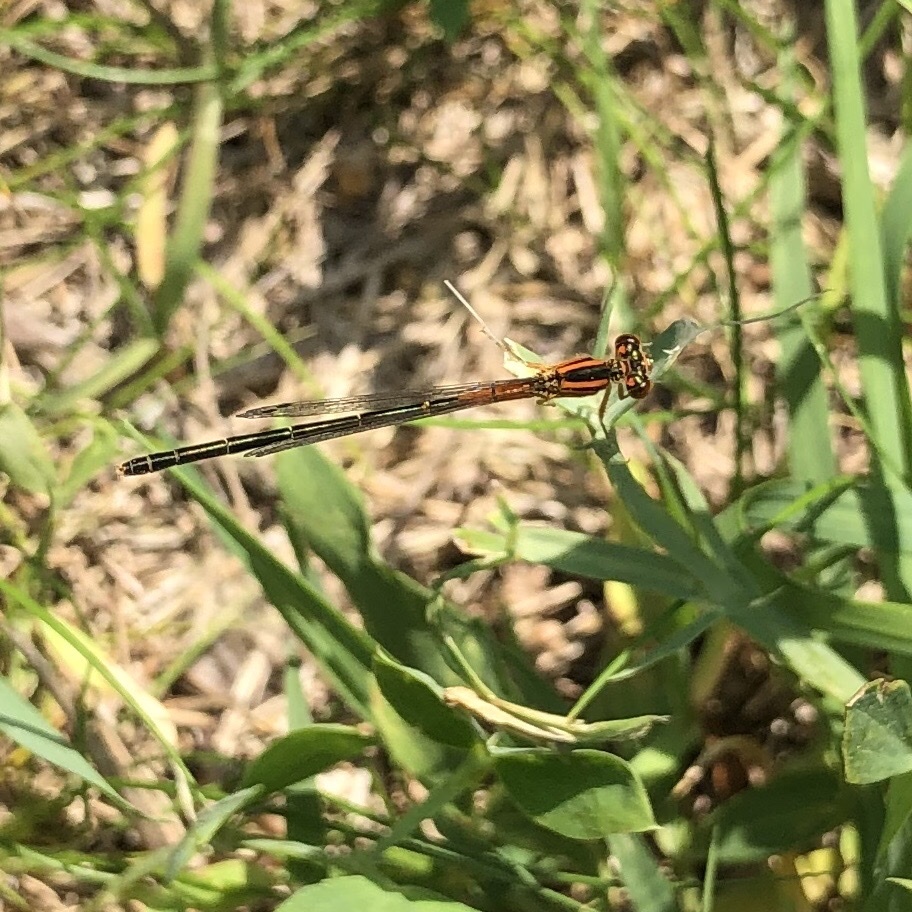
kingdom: Animalia
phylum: Arthropoda
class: Insecta
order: Odonata
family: Coenagrionidae
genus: Ischnura
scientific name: Ischnura verticalis
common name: Eastern forktail
